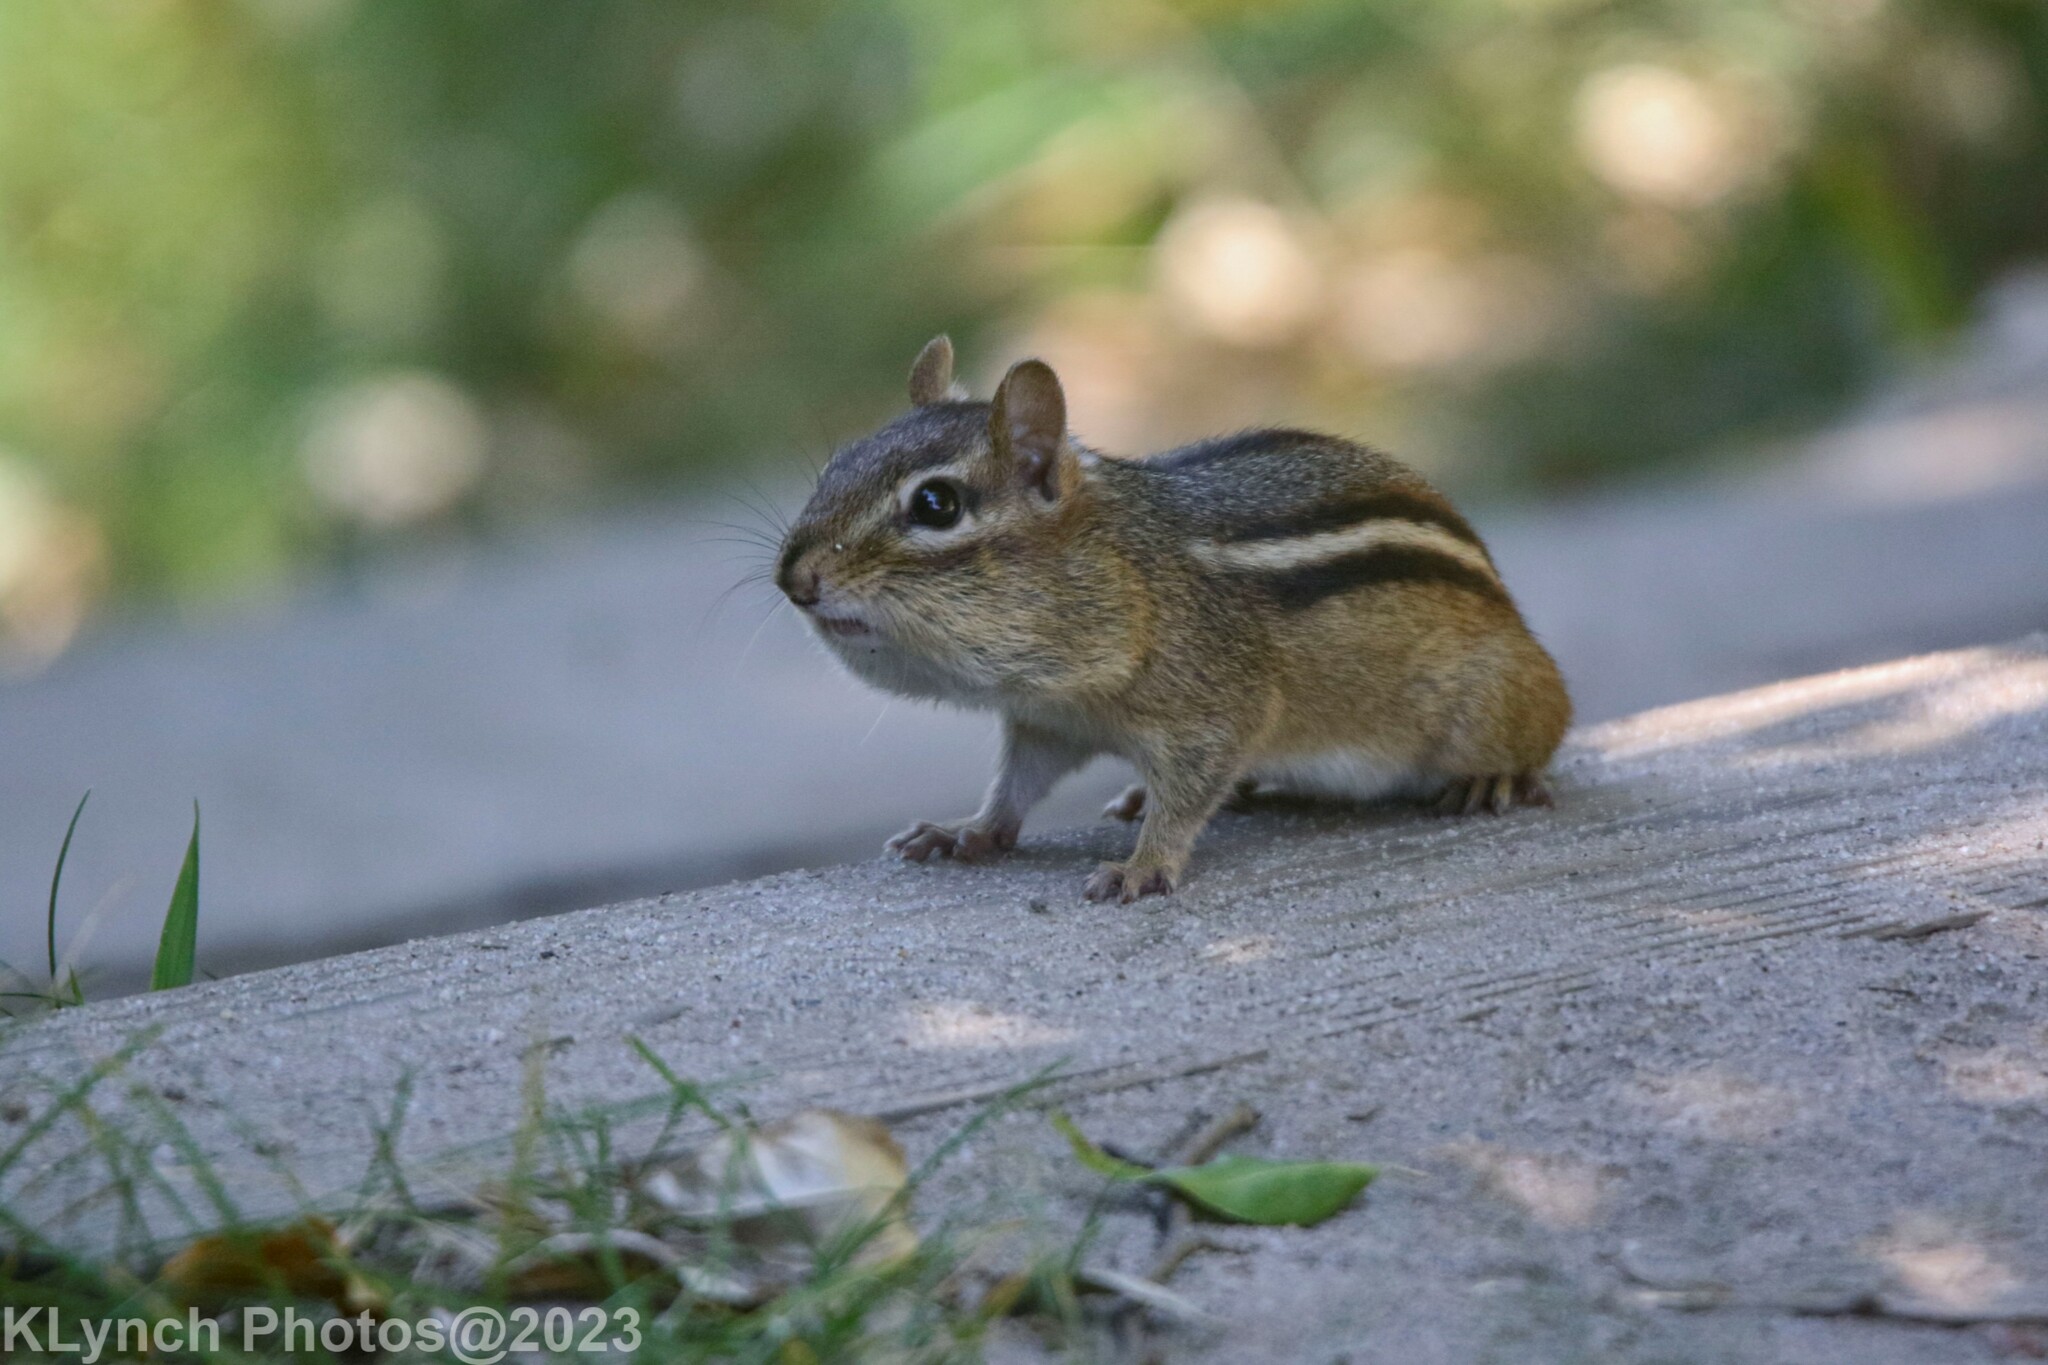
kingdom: Animalia
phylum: Chordata
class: Mammalia
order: Rodentia
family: Sciuridae
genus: Tamias
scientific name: Tamias striatus
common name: Eastern chipmunk
